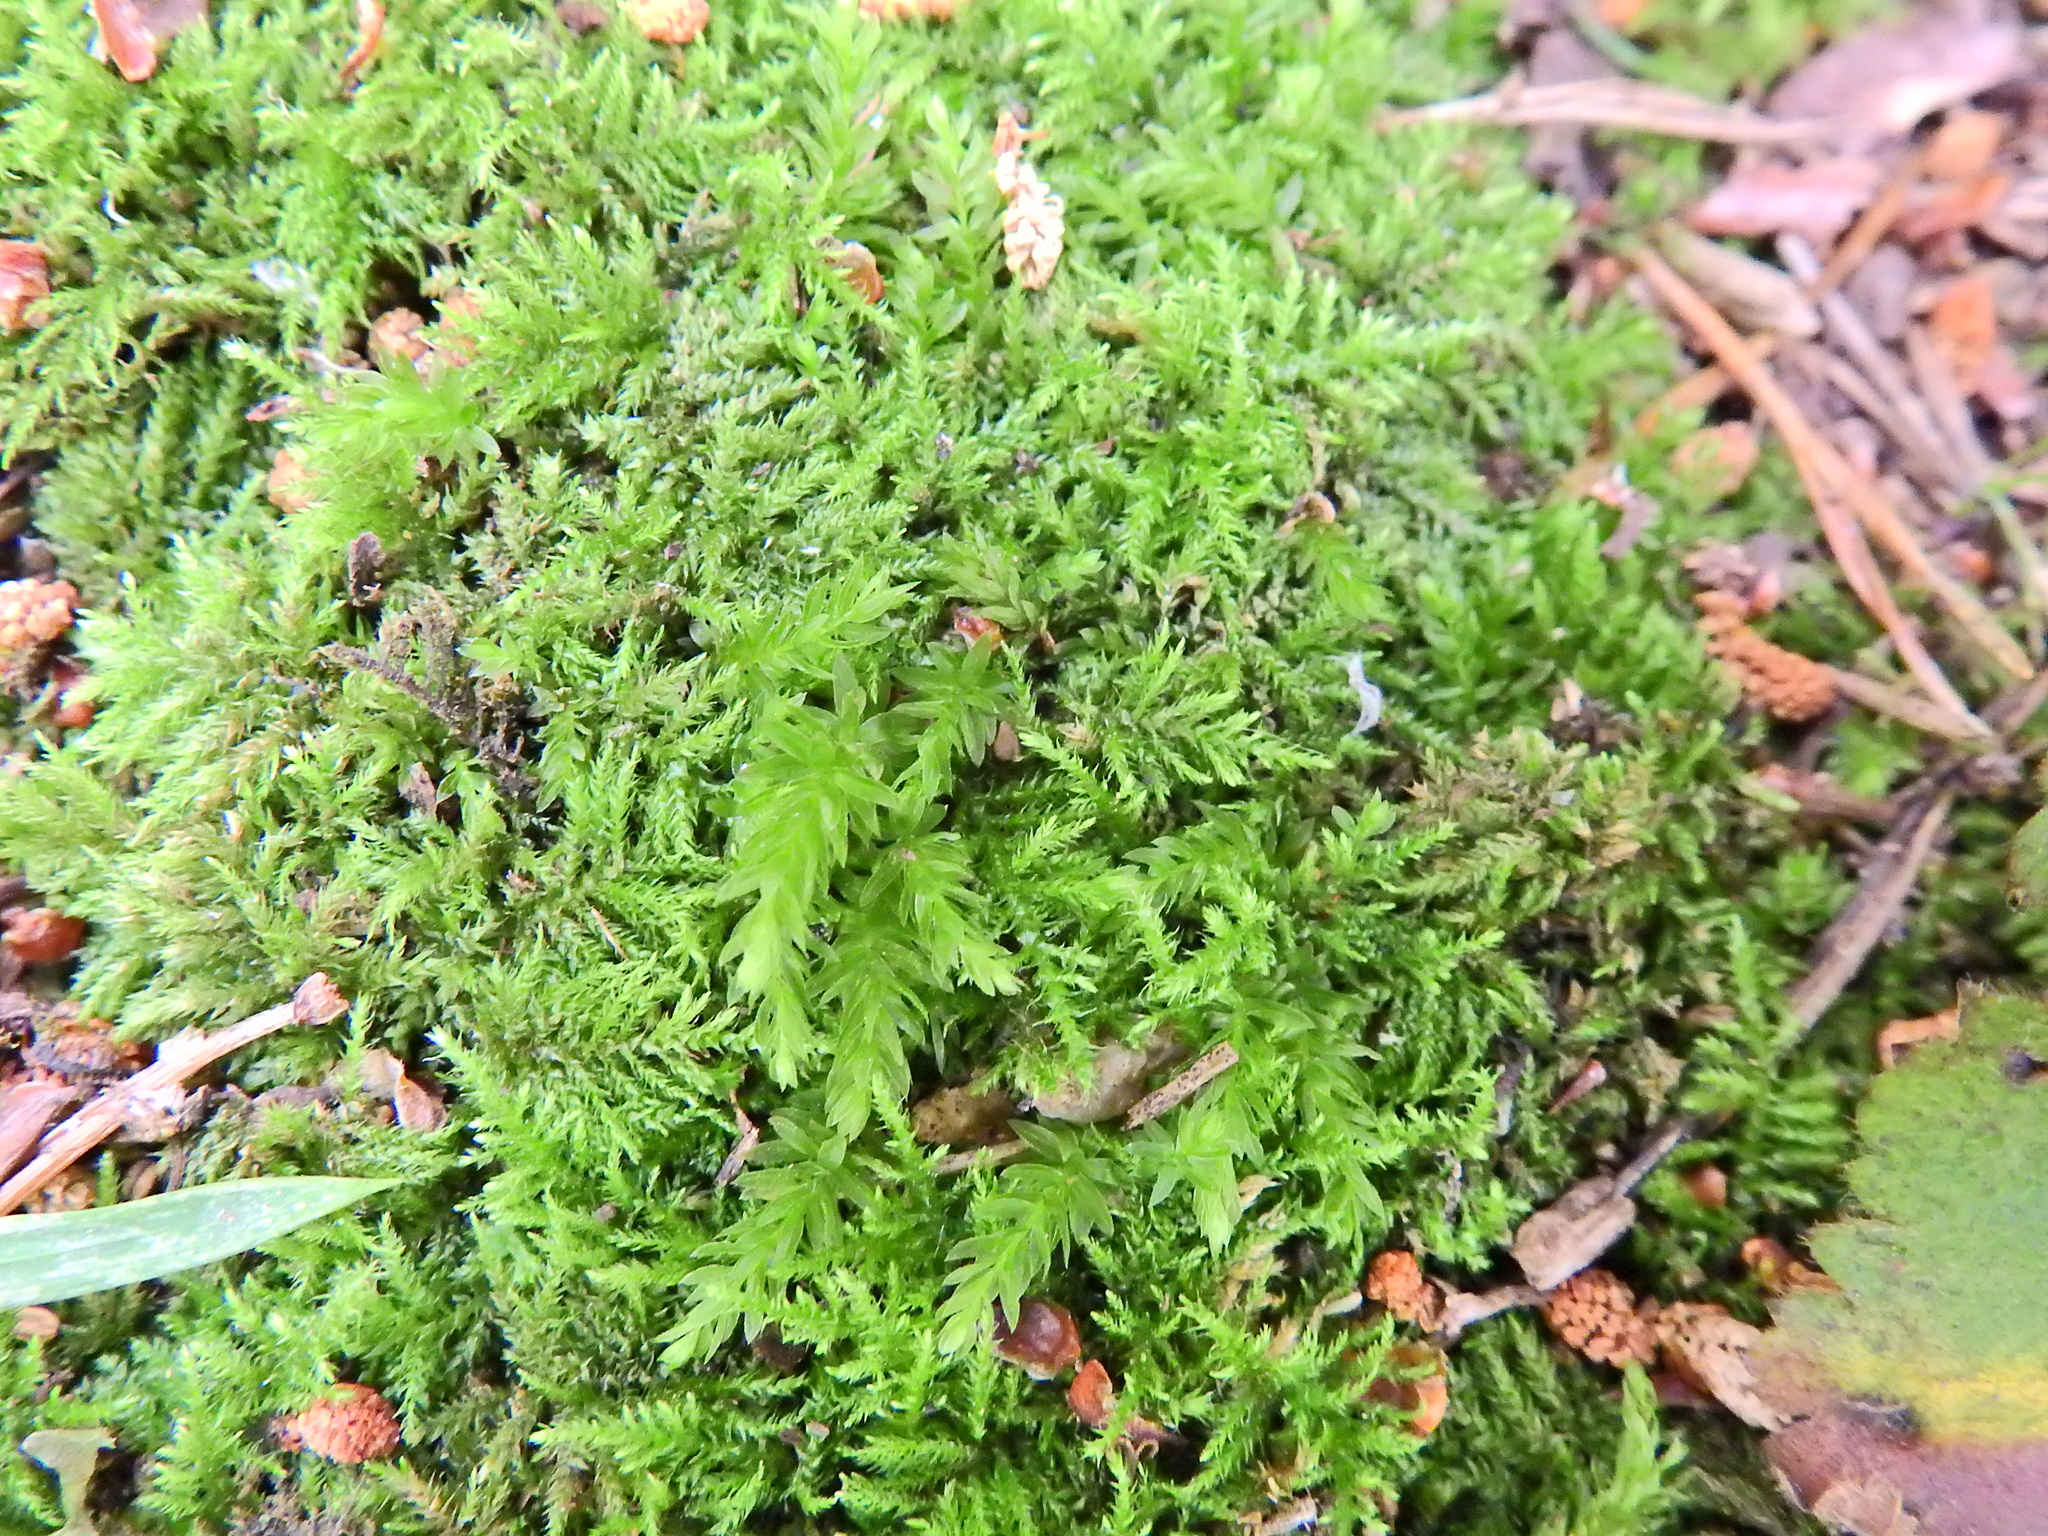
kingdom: Plantae
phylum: Bryophyta
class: Bryopsida
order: Hypnales
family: Brachytheciaceae
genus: Kindbergia
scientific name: Kindbergia praelonga
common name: Slender beaked moss
